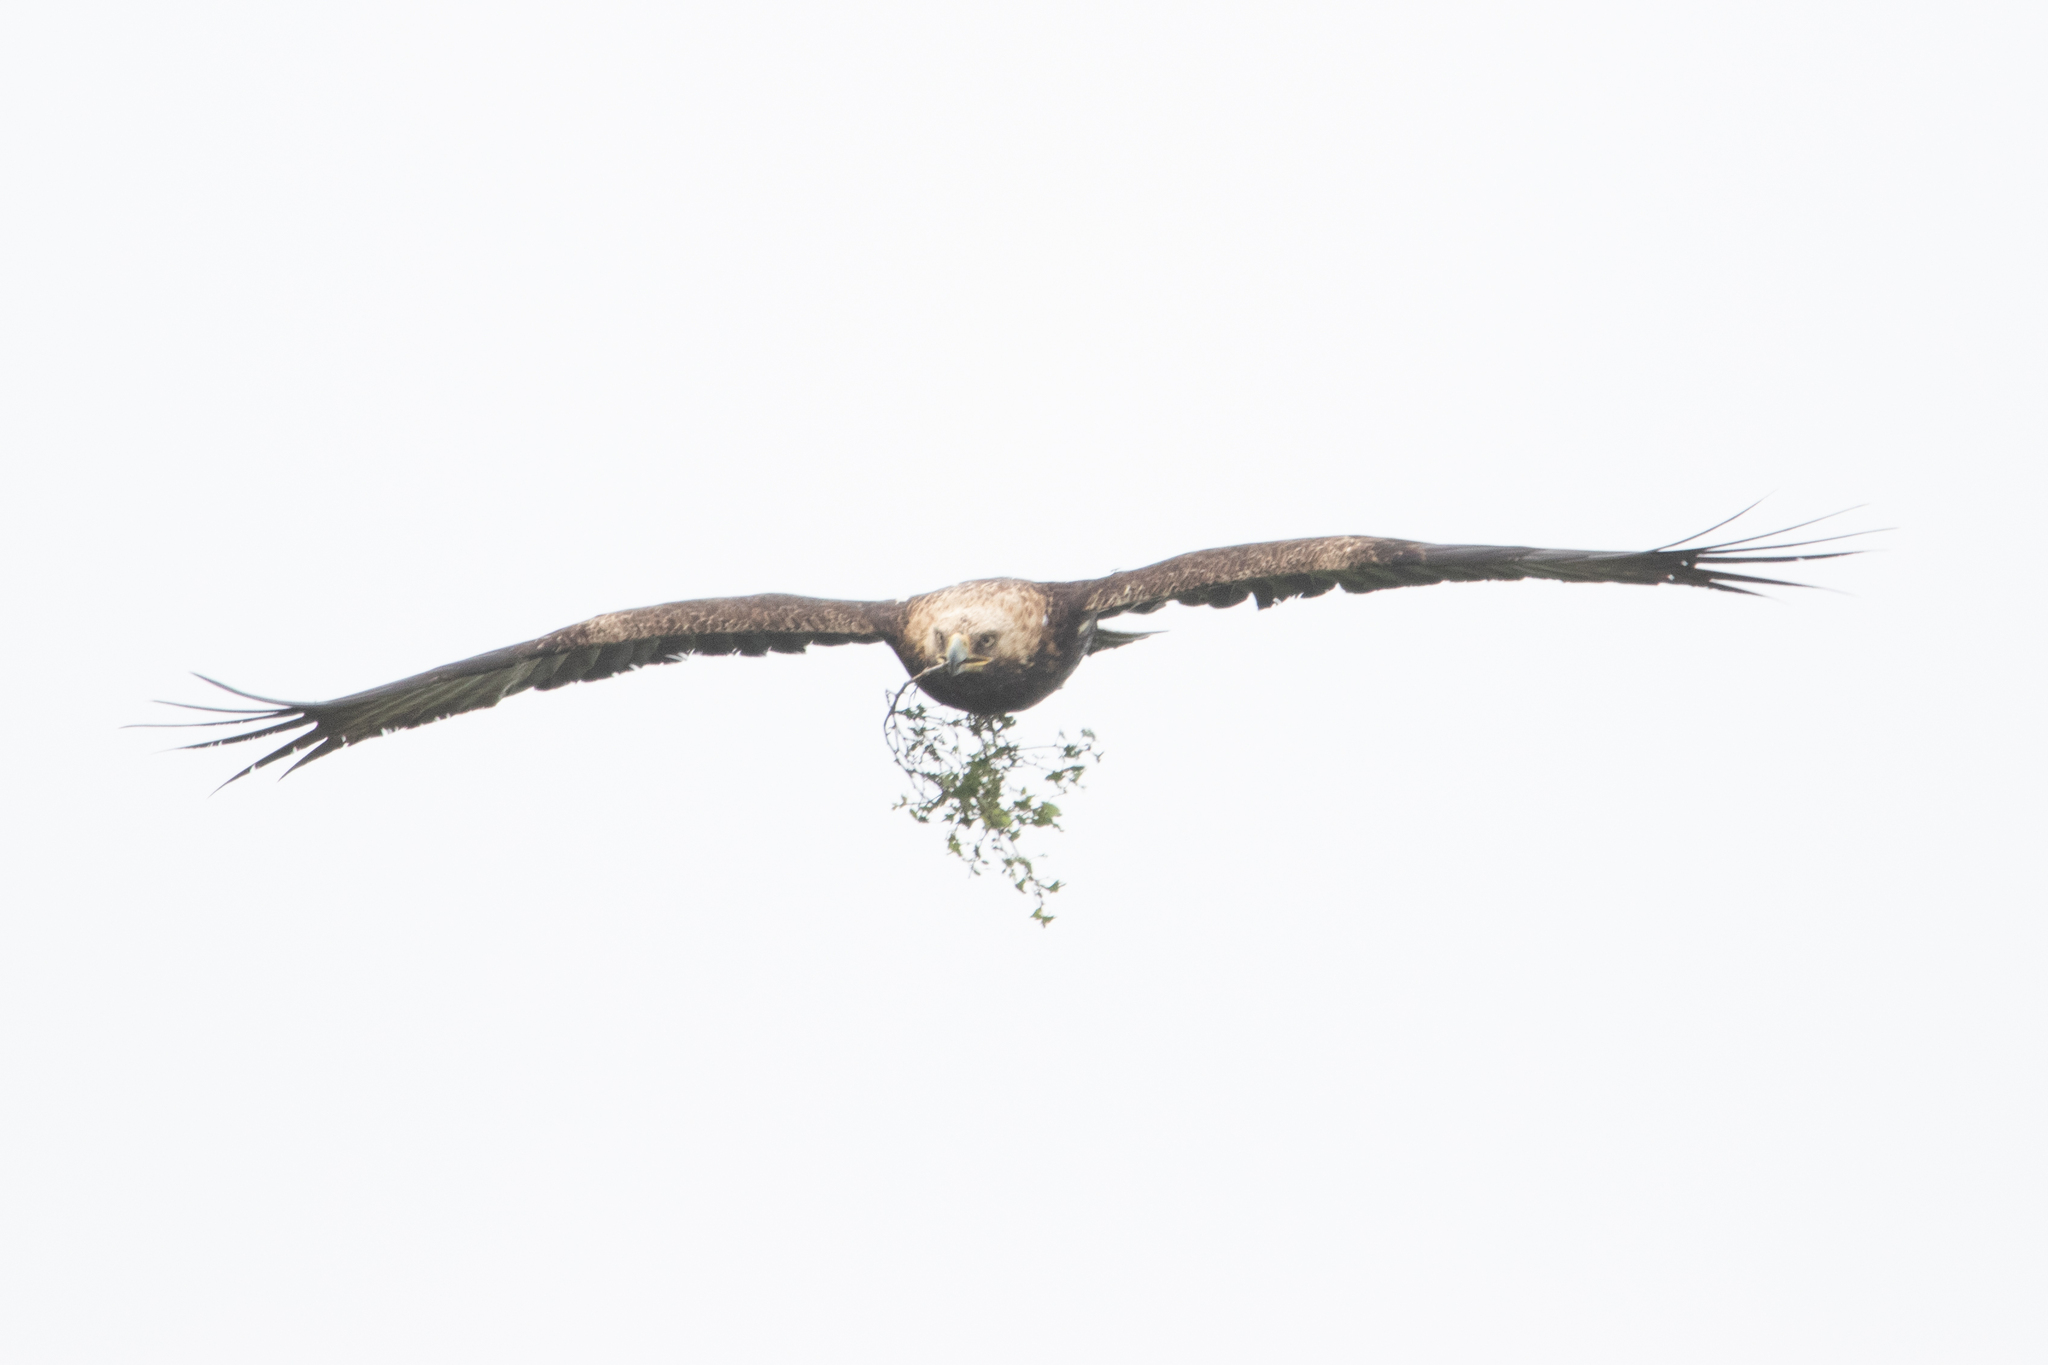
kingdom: Animalia
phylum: Chordata
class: Aves
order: Accipitriformes
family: Accipitridae
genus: Aquila
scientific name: Aquila heliaca
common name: Eastern imperial eagle
